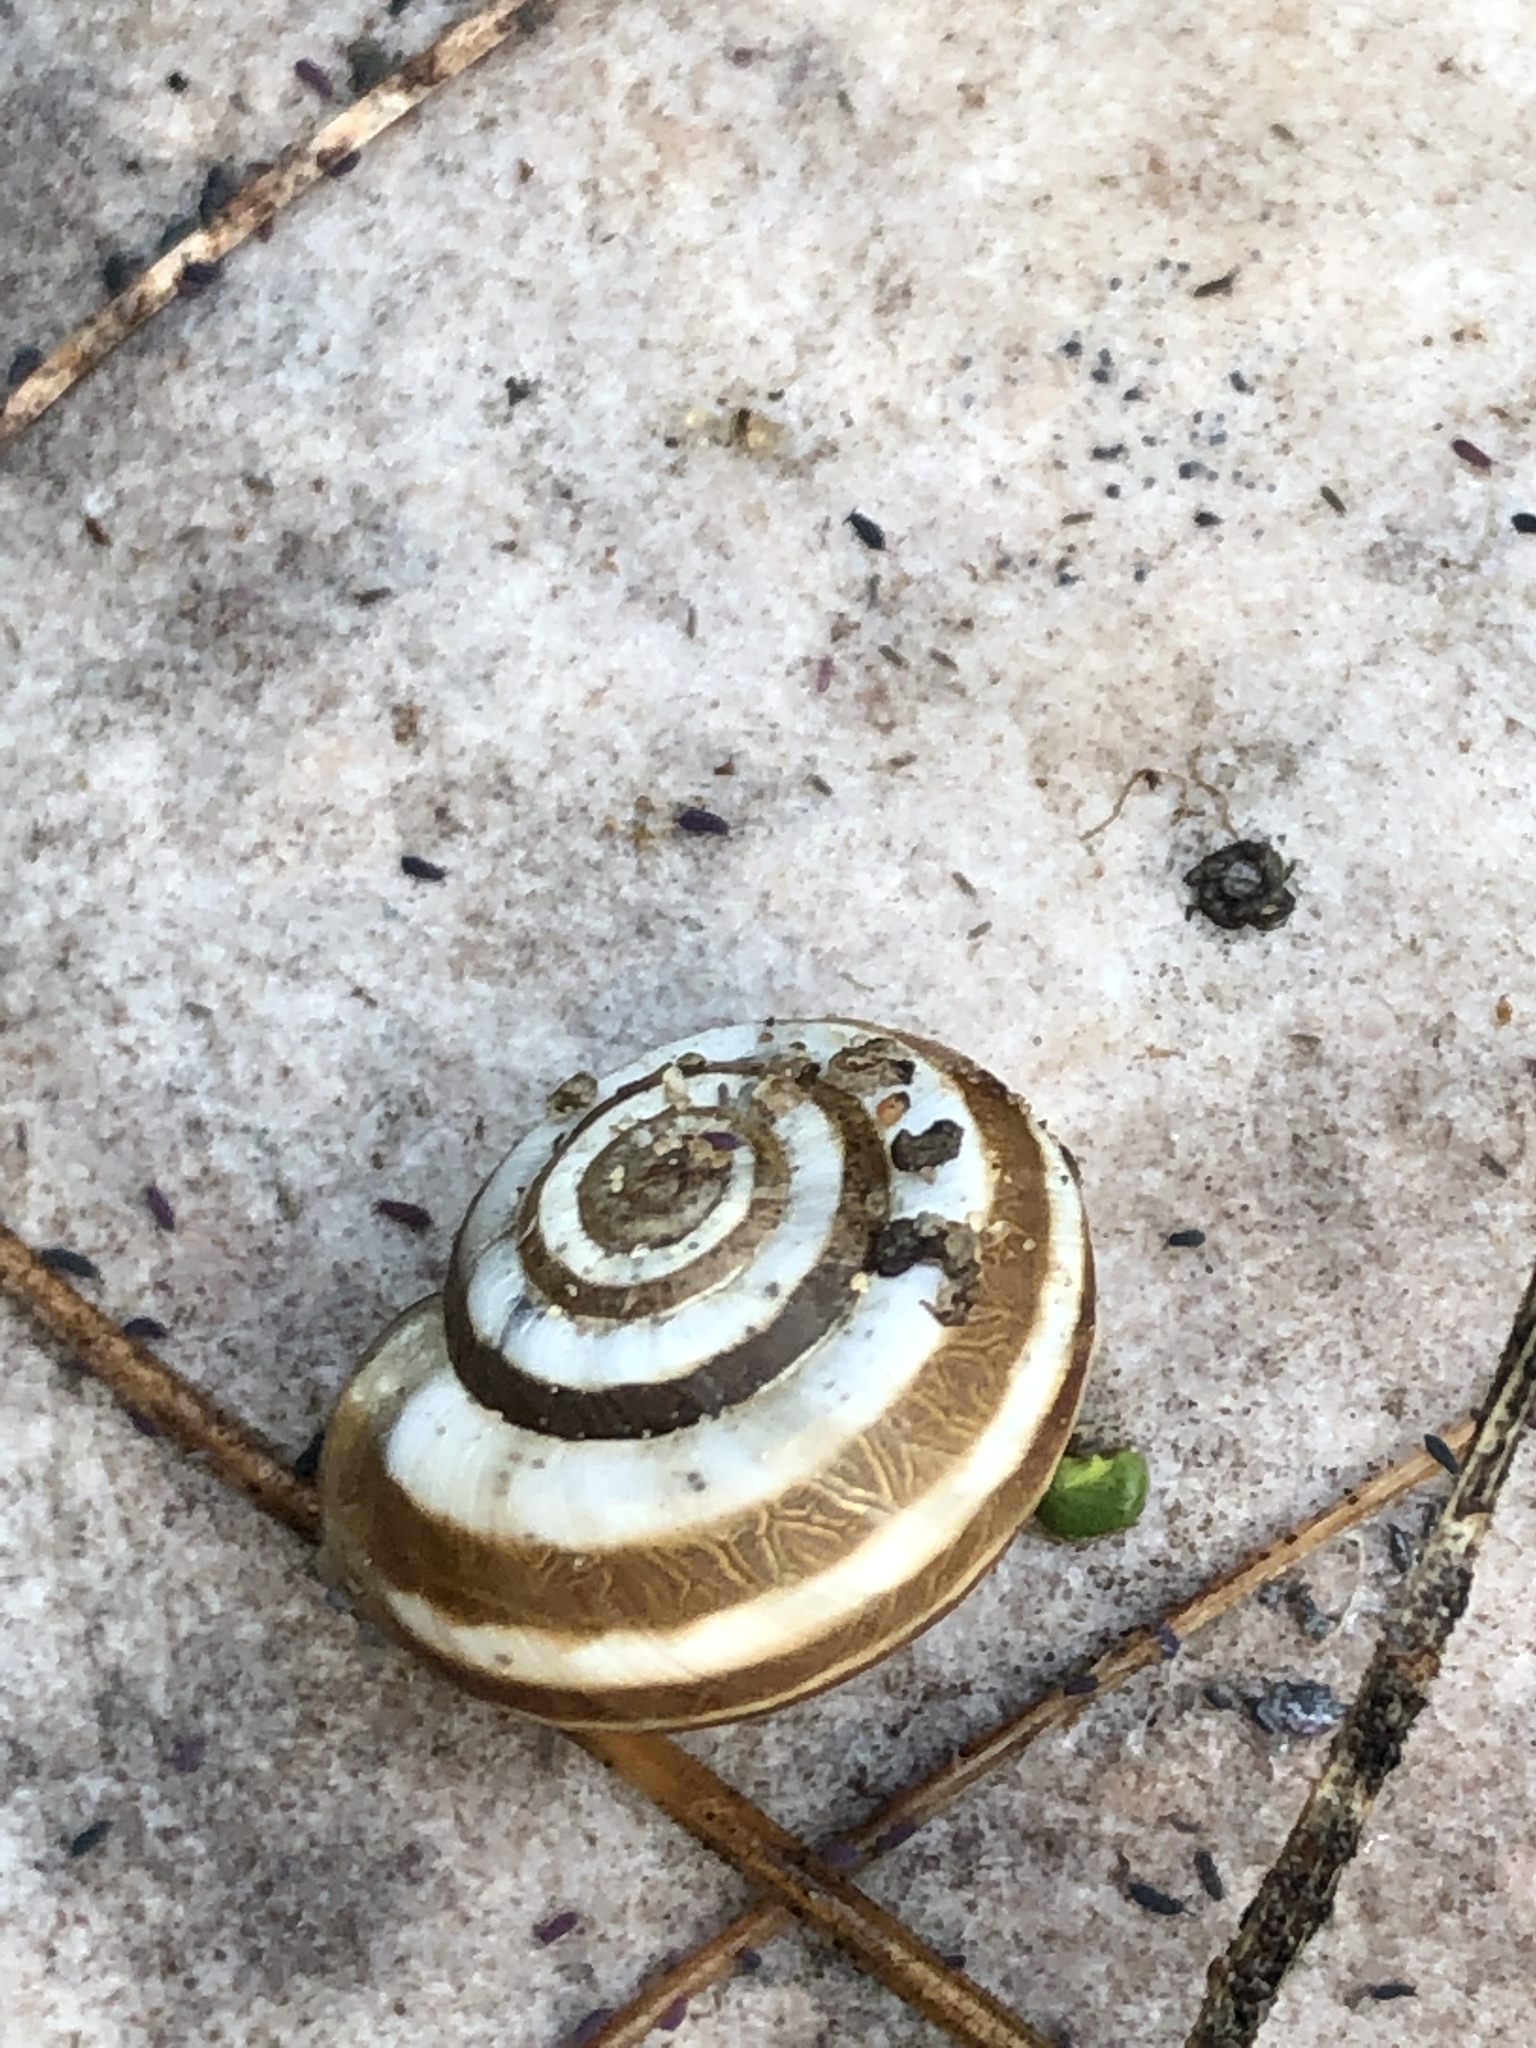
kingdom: Animalia
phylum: Mollusca
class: Gastropoda
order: Stylommatophora
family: Geomitridae
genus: Helicella
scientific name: Helicella itala
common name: Heath snail
